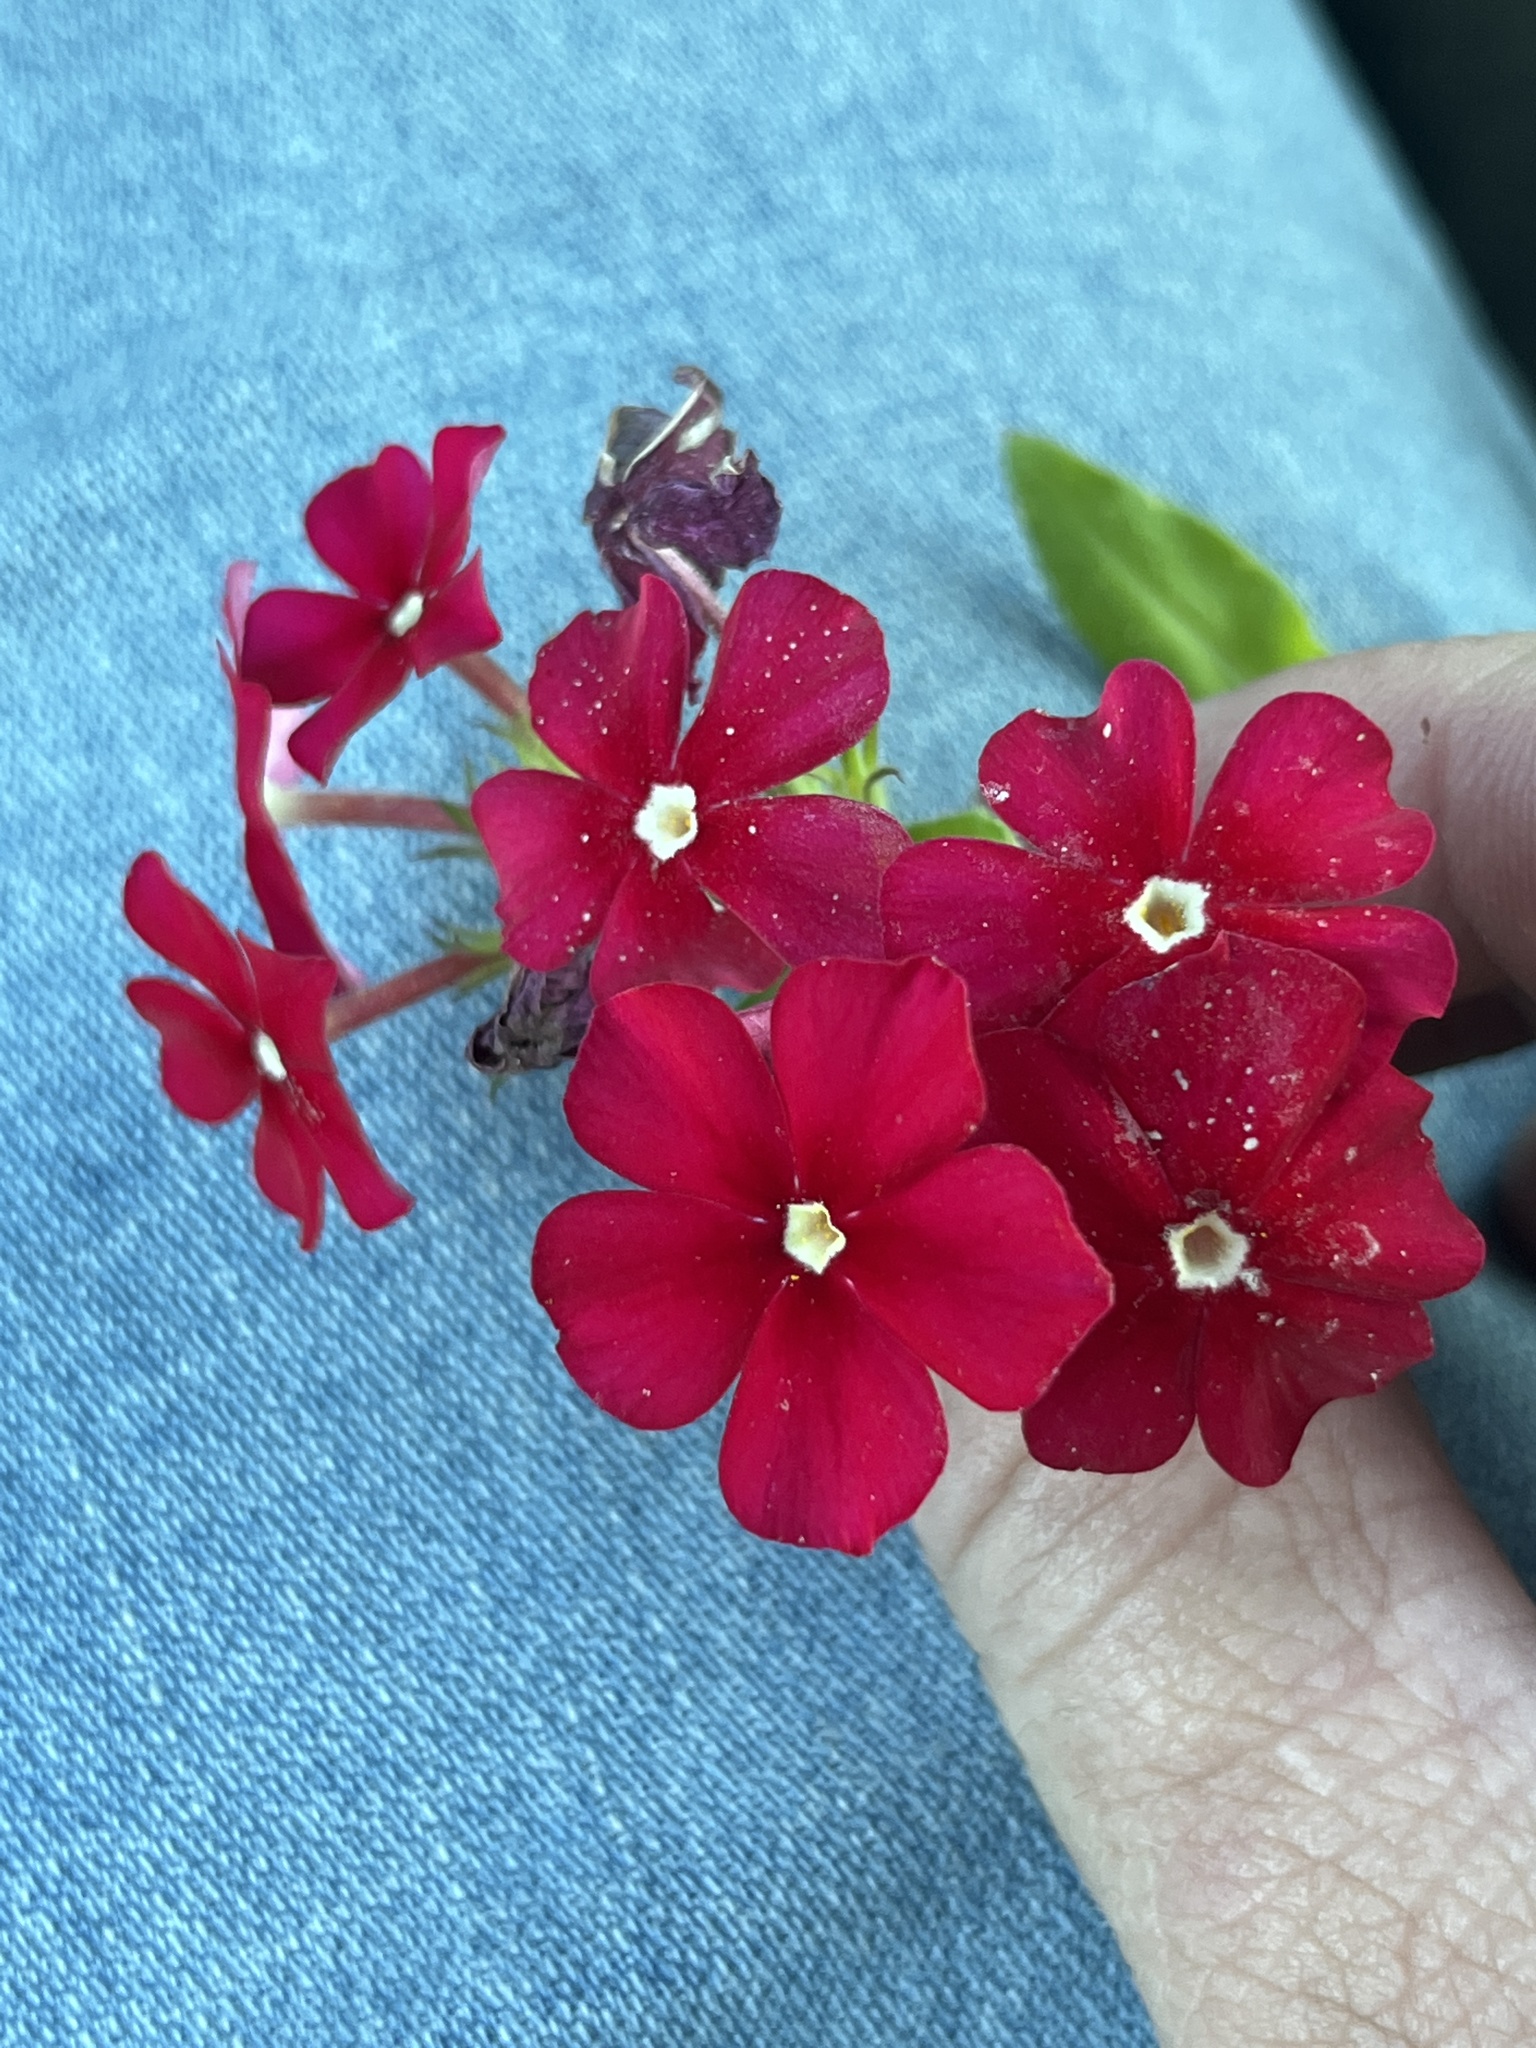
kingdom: Plantae
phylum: Tracheophyta
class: Magnoliopsida
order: Ericales
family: Polemoniaceae
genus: Phlox
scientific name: Phlox drummondii
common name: Drummond's phlox
